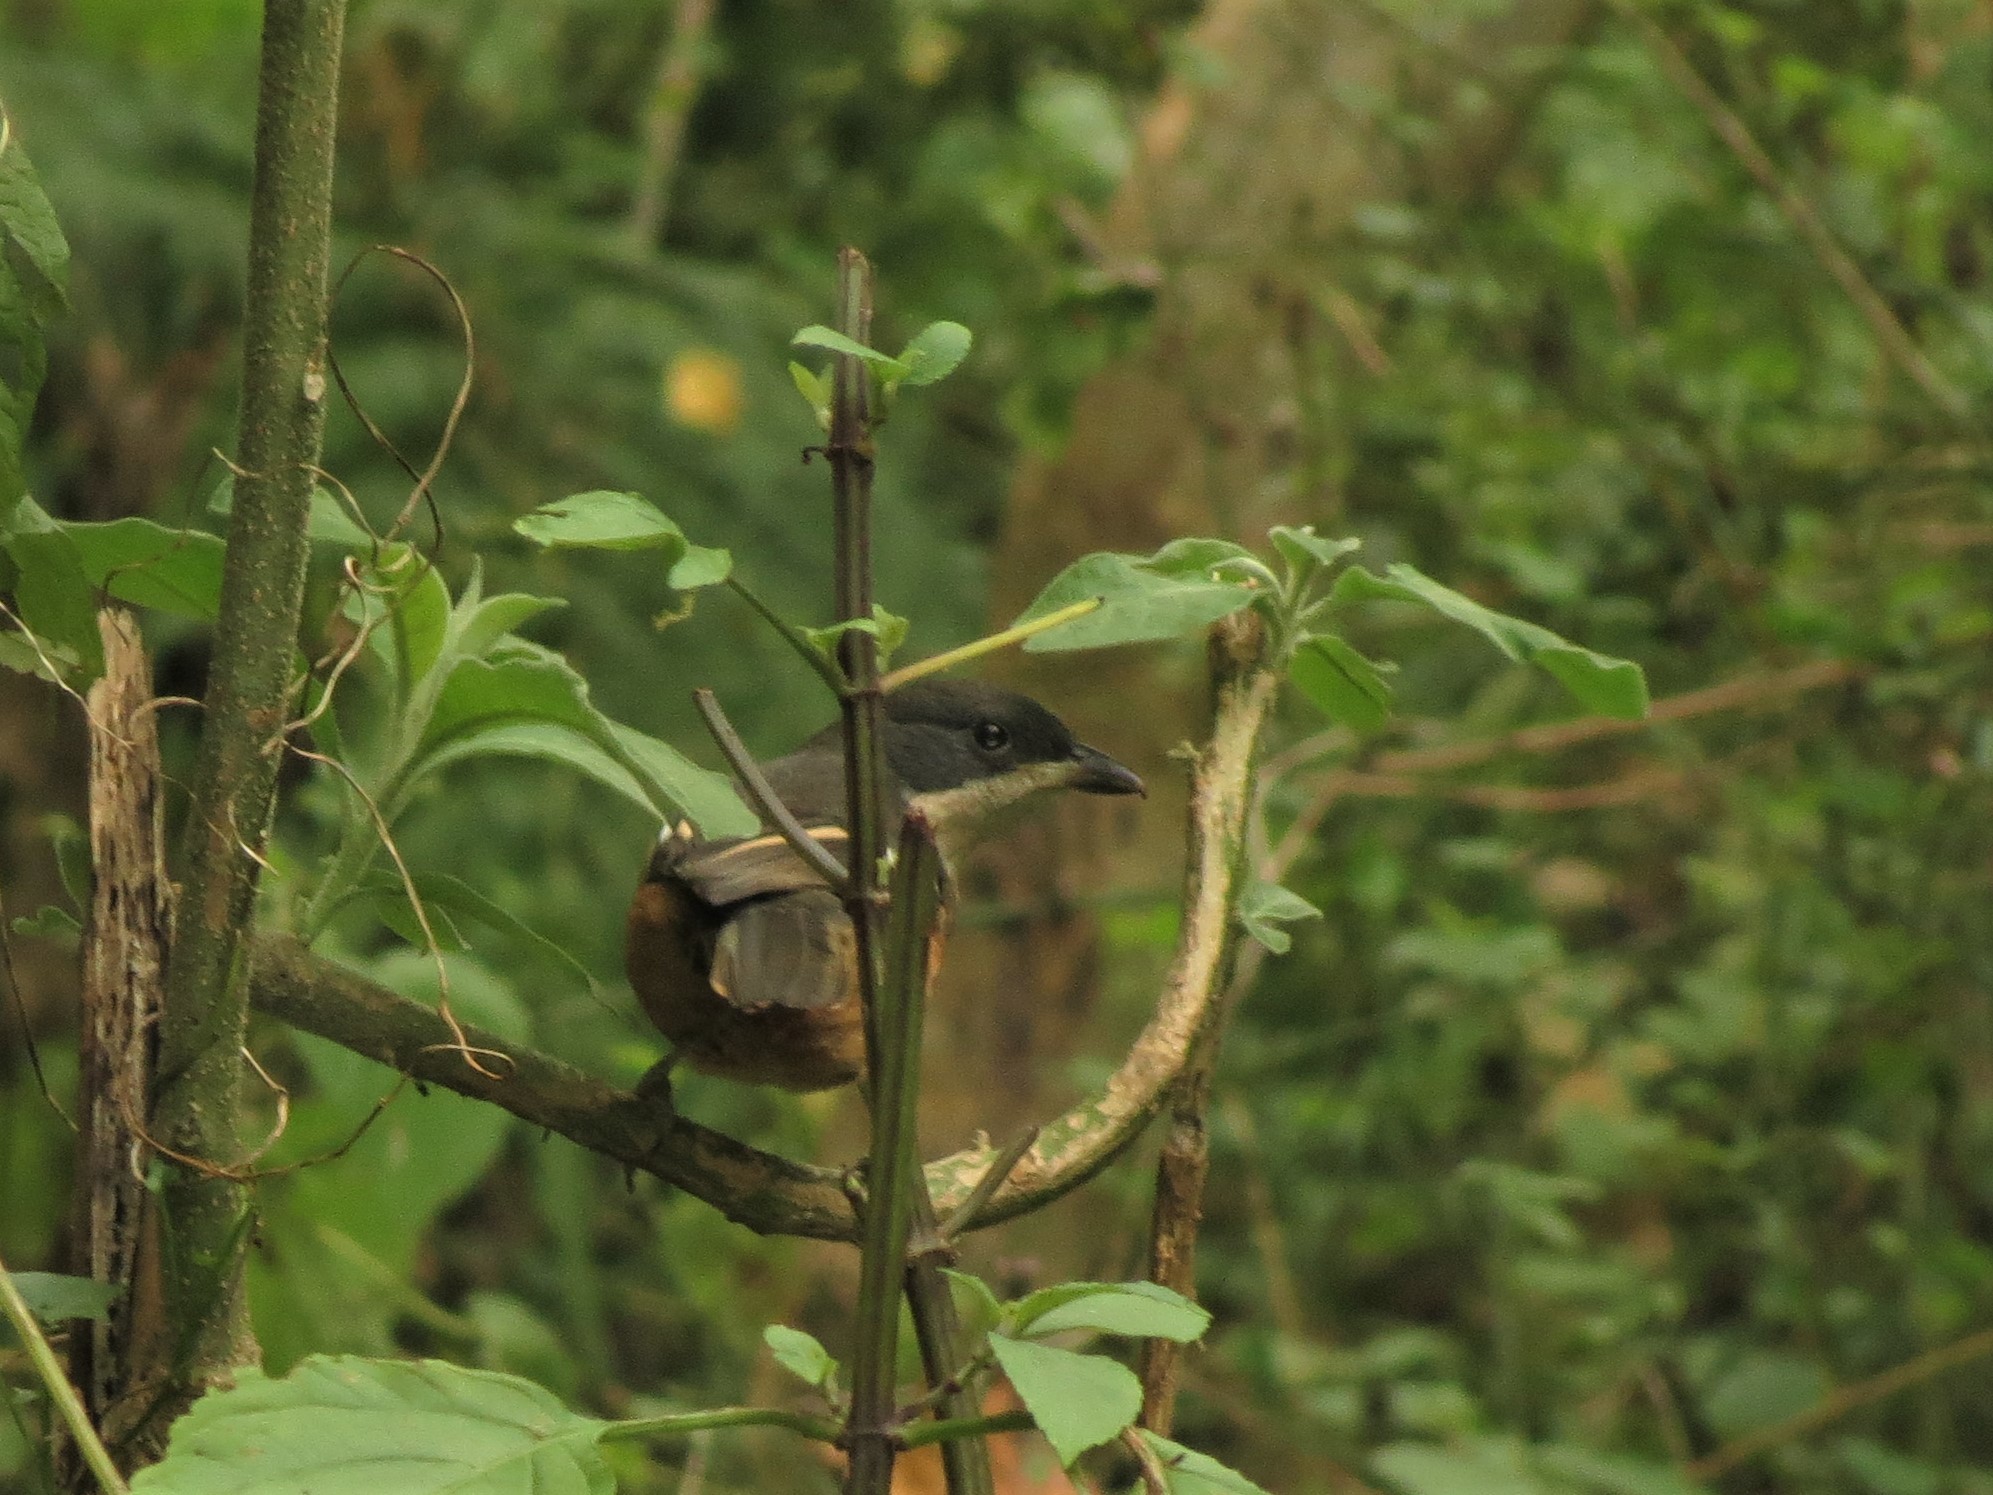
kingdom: Animalia
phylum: Chordata
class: Aves
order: Passeriformes
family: Malaconotidae
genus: Laniarius
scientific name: Laniarius ferrugineus
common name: Southern boubou
